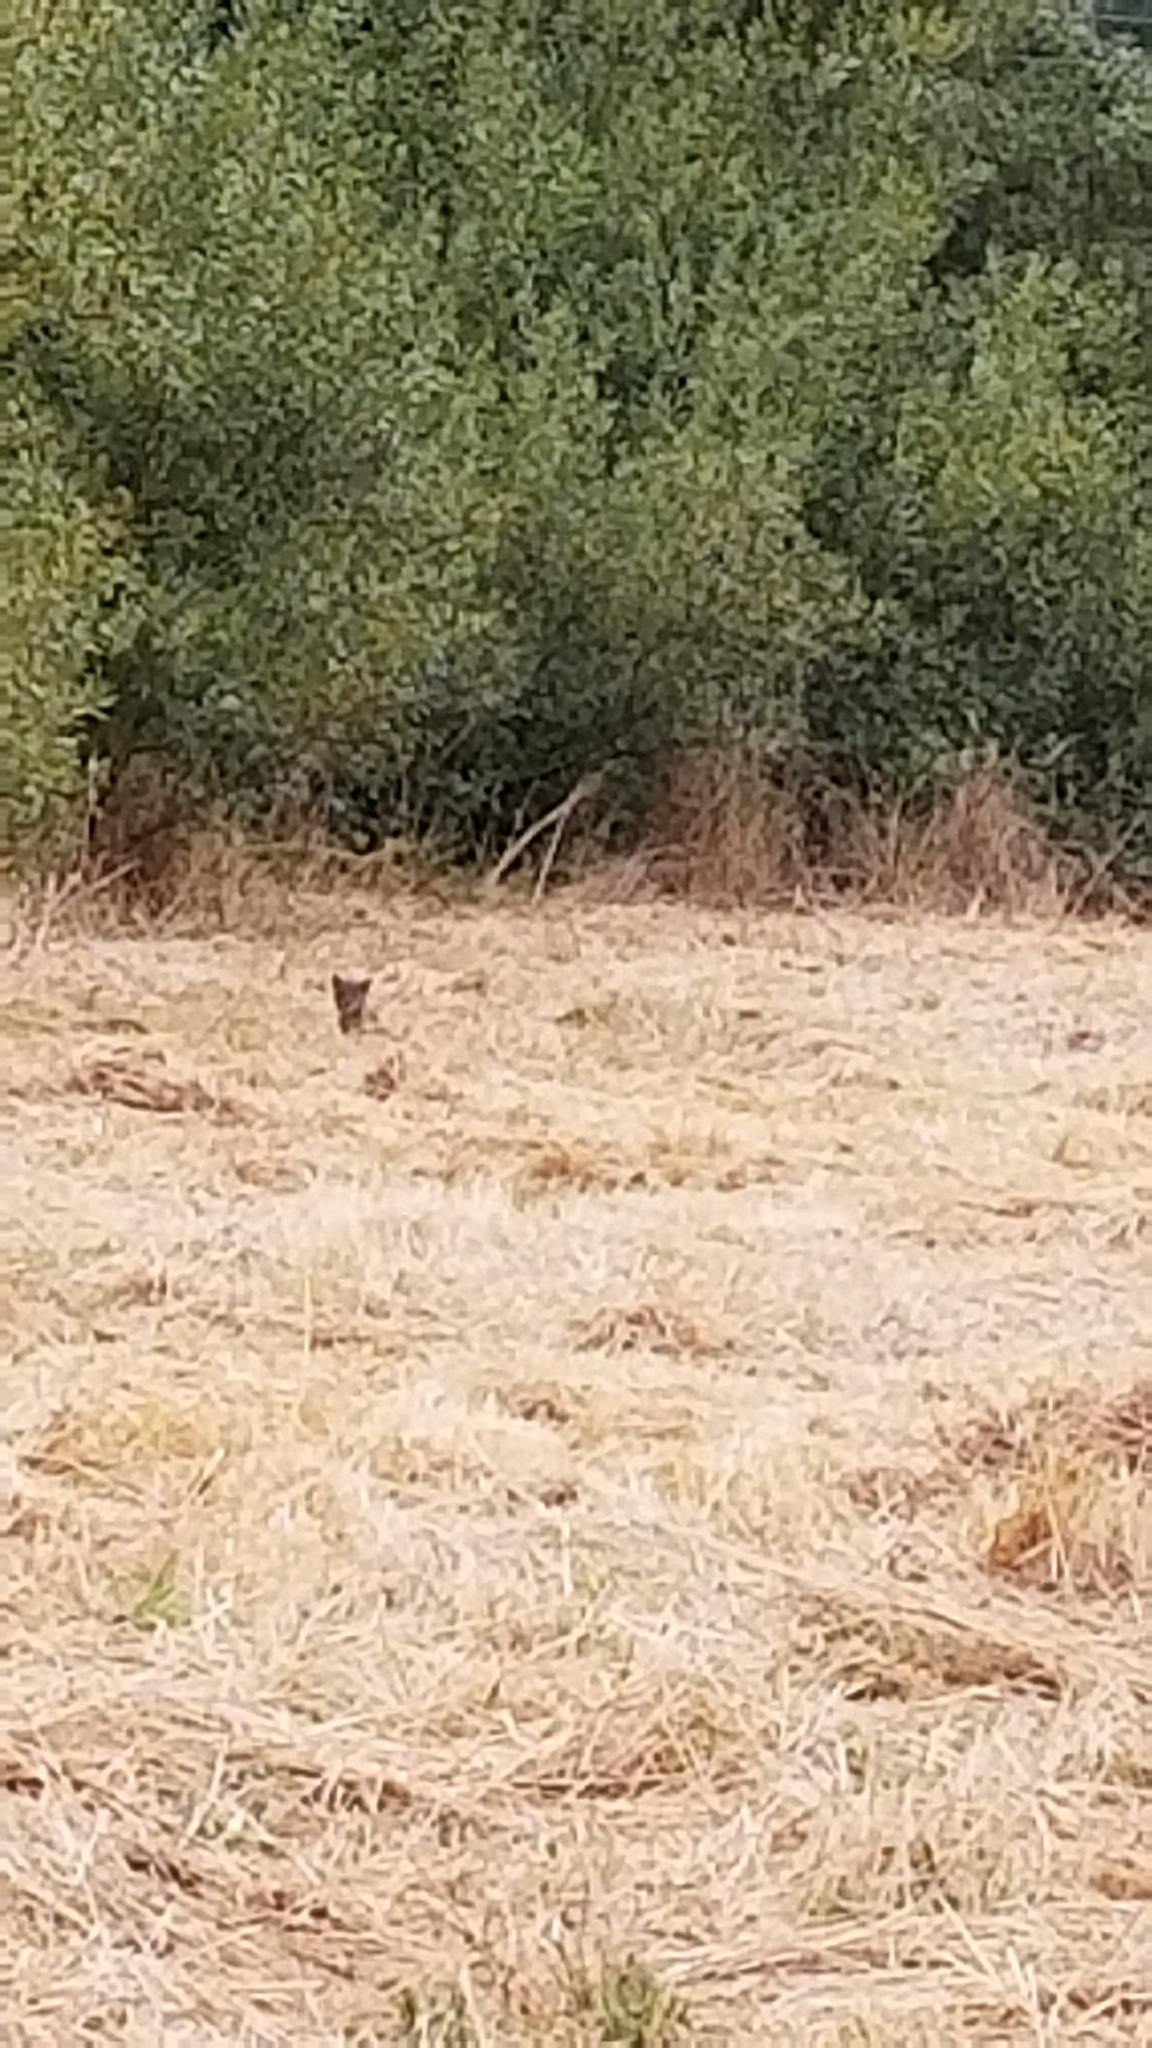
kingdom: Animalia
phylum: Chordata
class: Mammalia
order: Carnivora
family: Felidae
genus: Lynx
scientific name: Lynx rufus
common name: Bobcat
